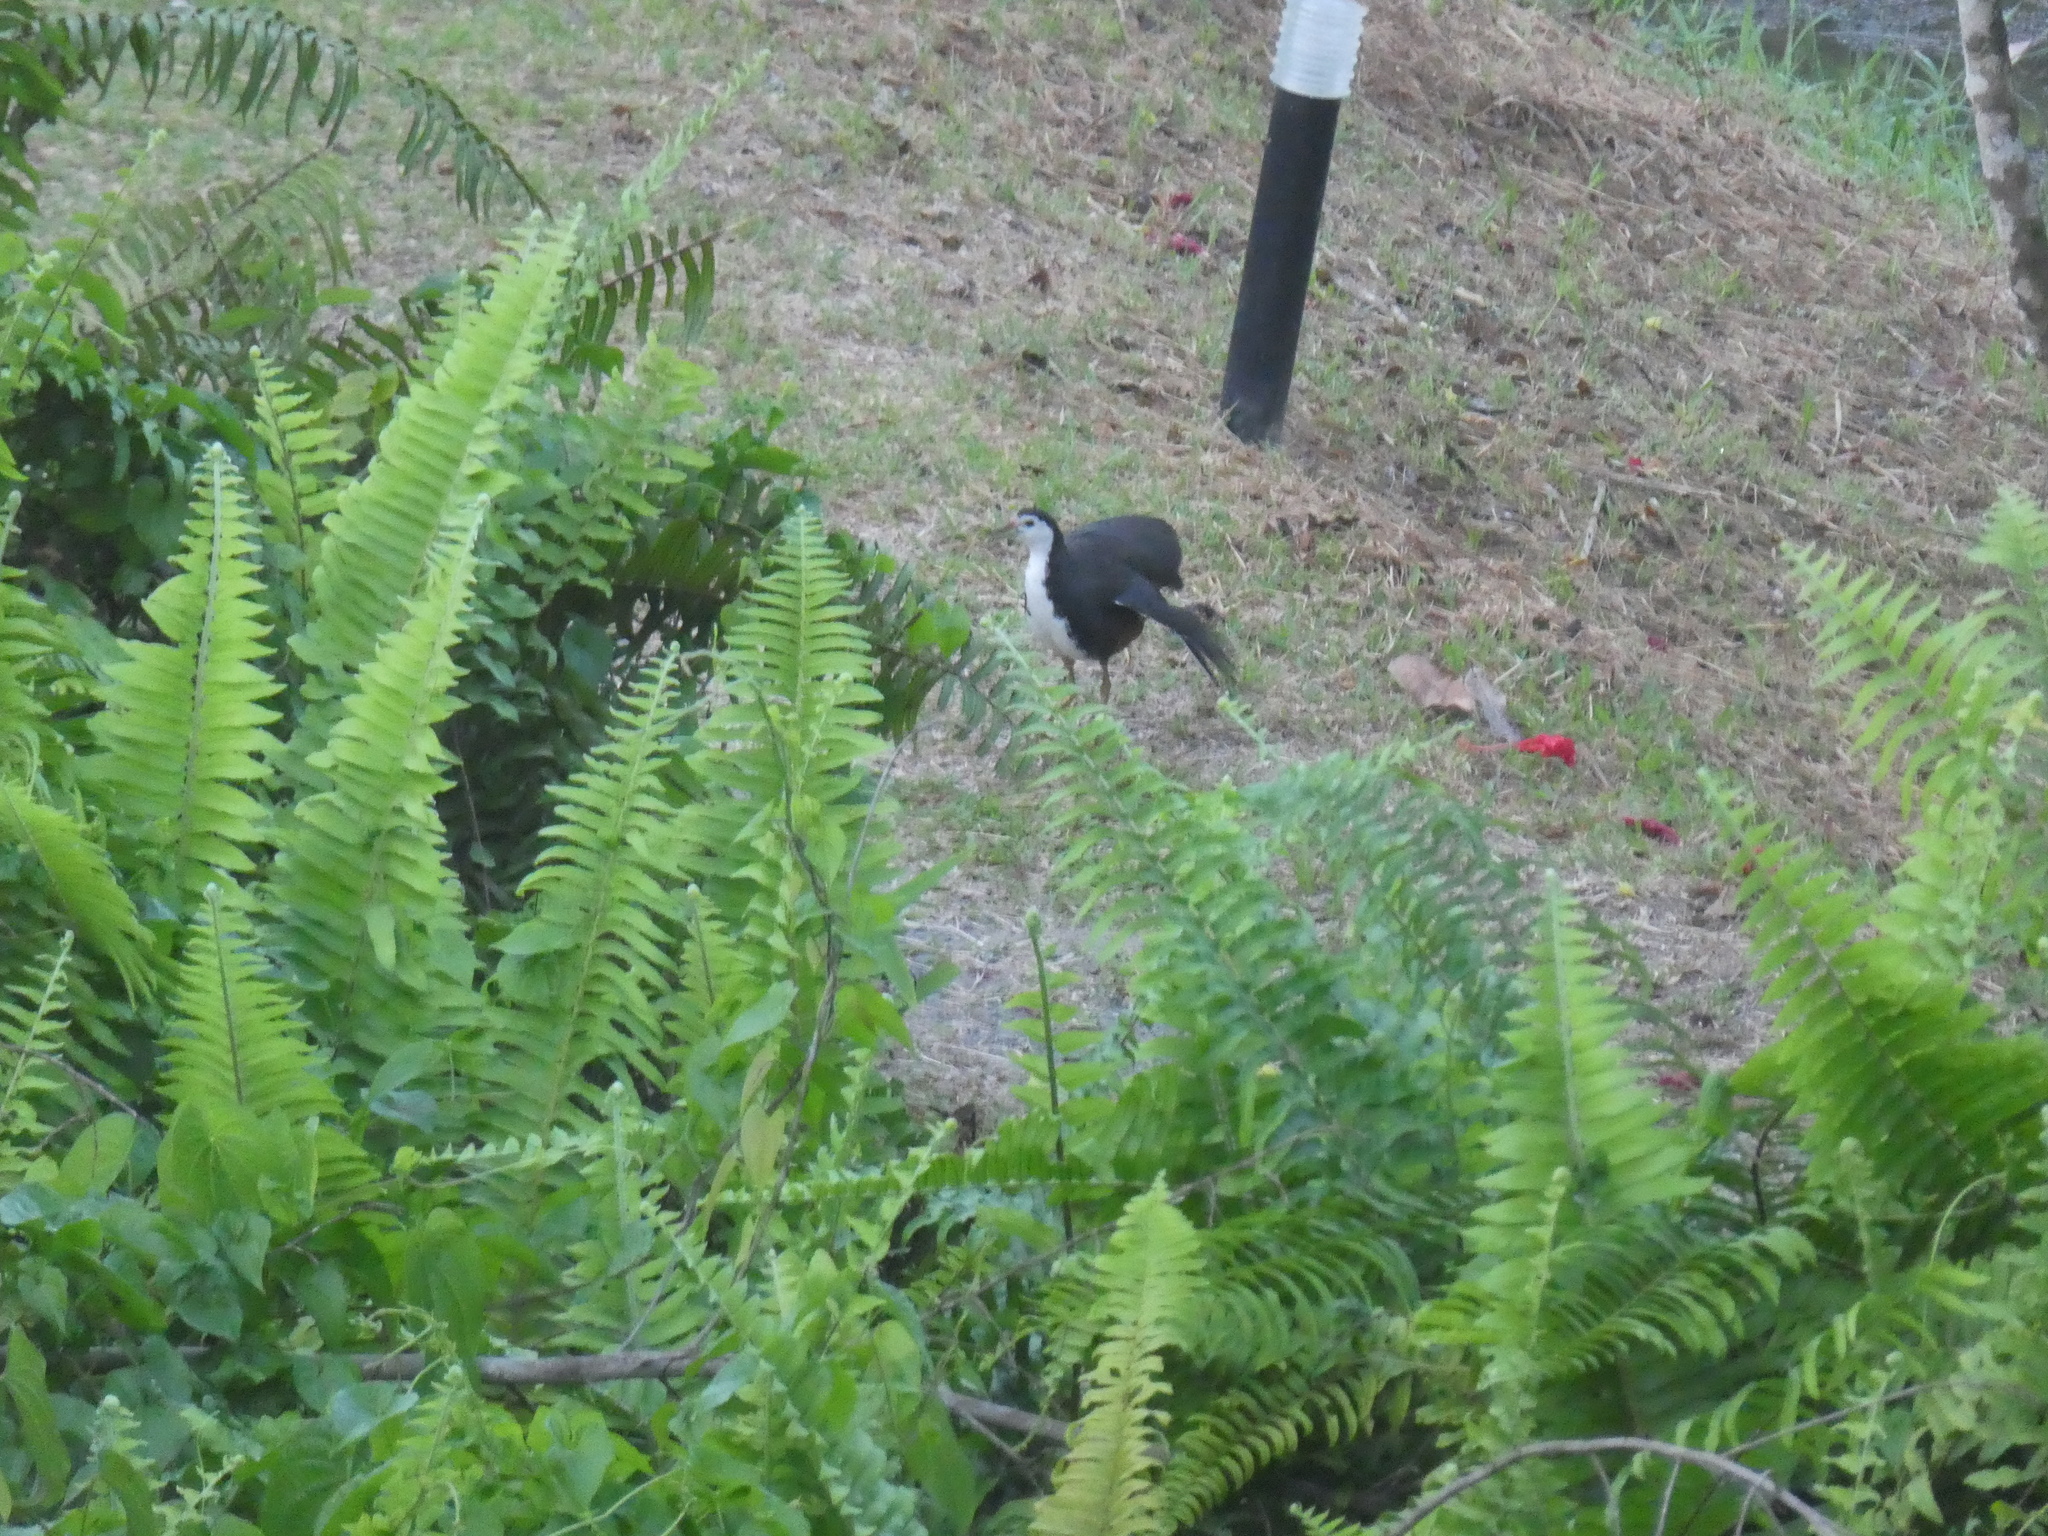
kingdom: Animalia
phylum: Chordata
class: Aves
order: Gruiformes
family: Rallidae
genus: Amaurornis
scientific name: Amaurornis phoenicurus
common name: White-breasted waterhen
